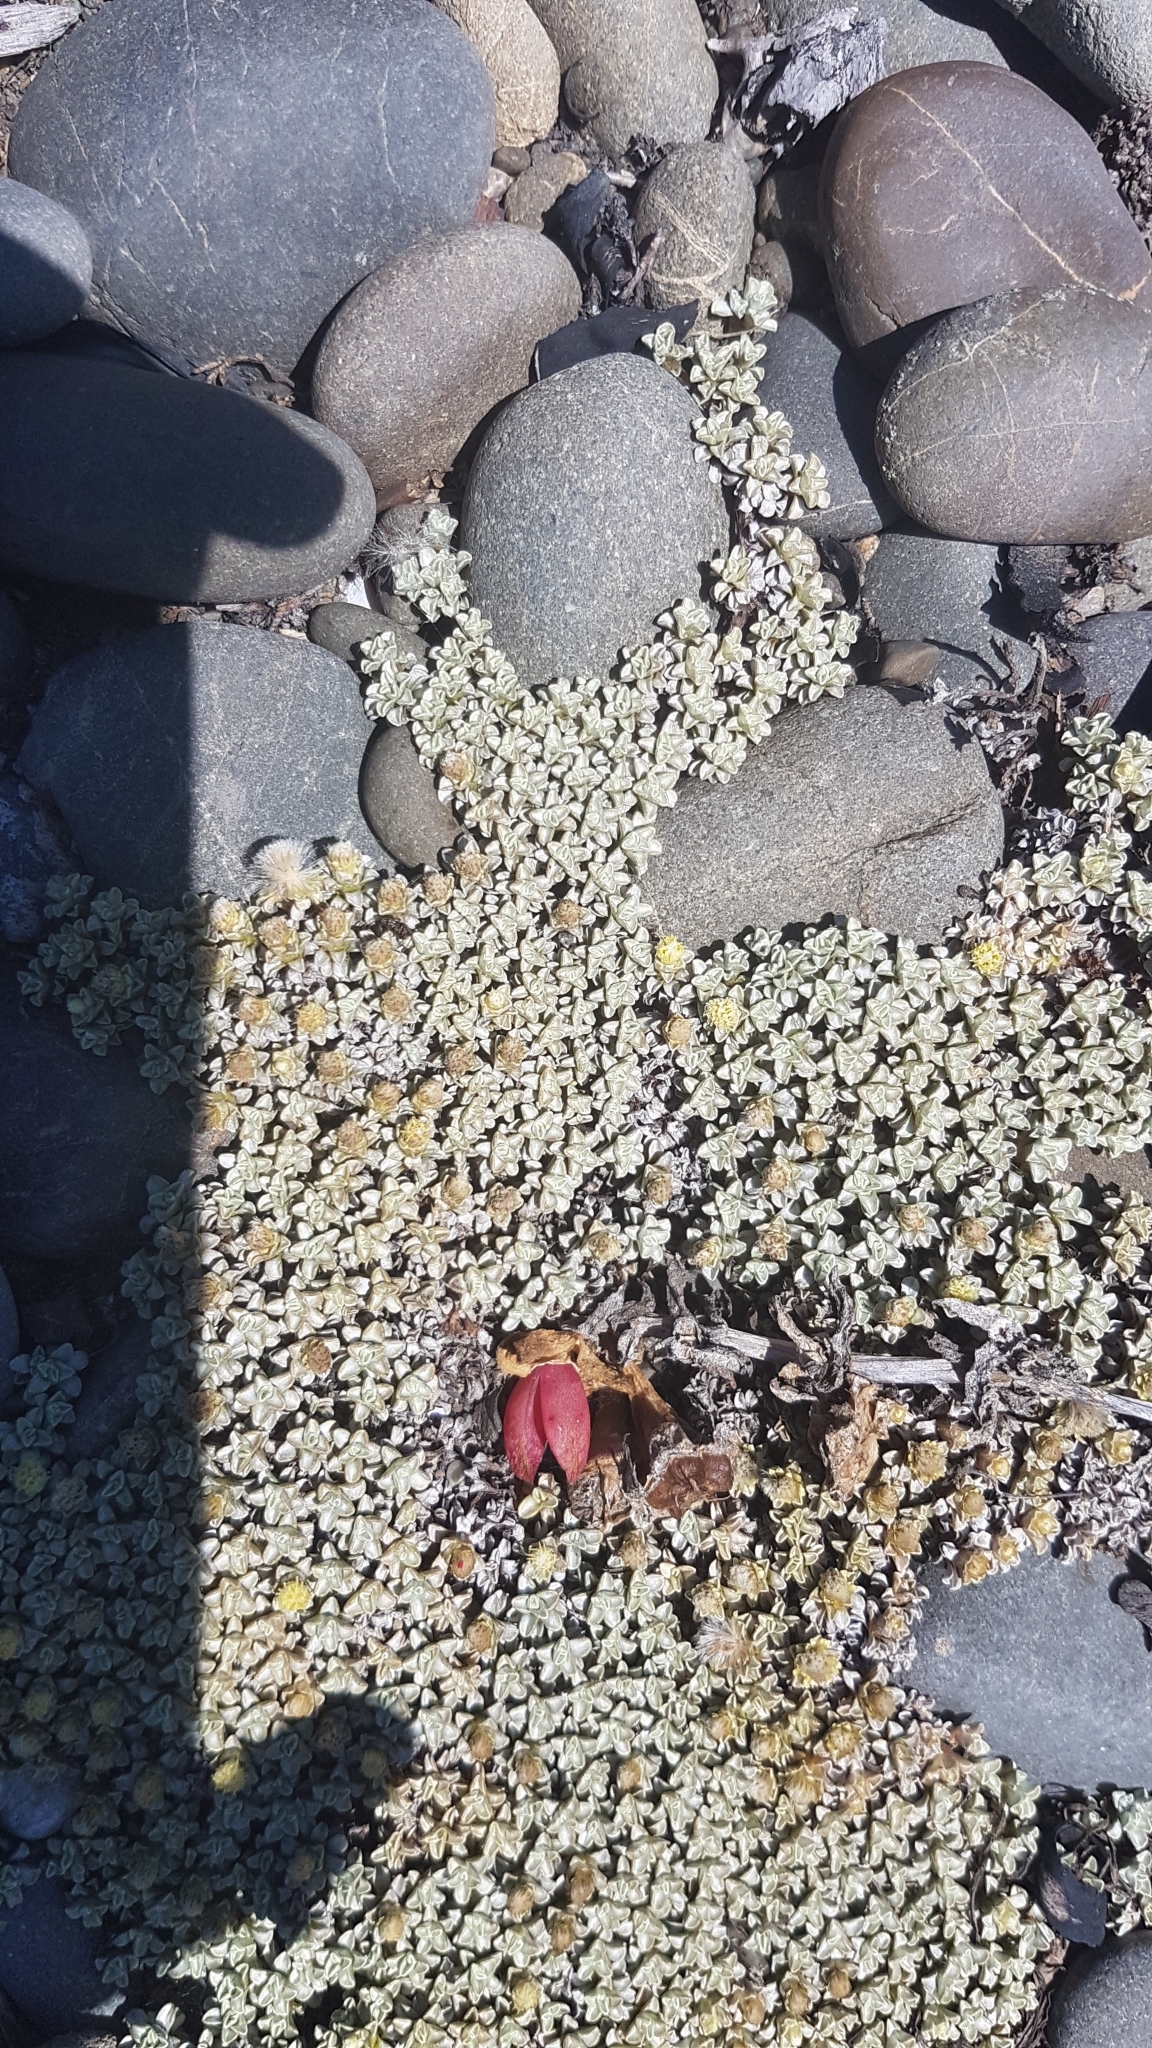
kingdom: Plantae
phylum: Tracheophyta
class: Magnoliopsida
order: Asterales
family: Asteraceae
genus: Raoulia
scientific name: Raoulia hookeri
